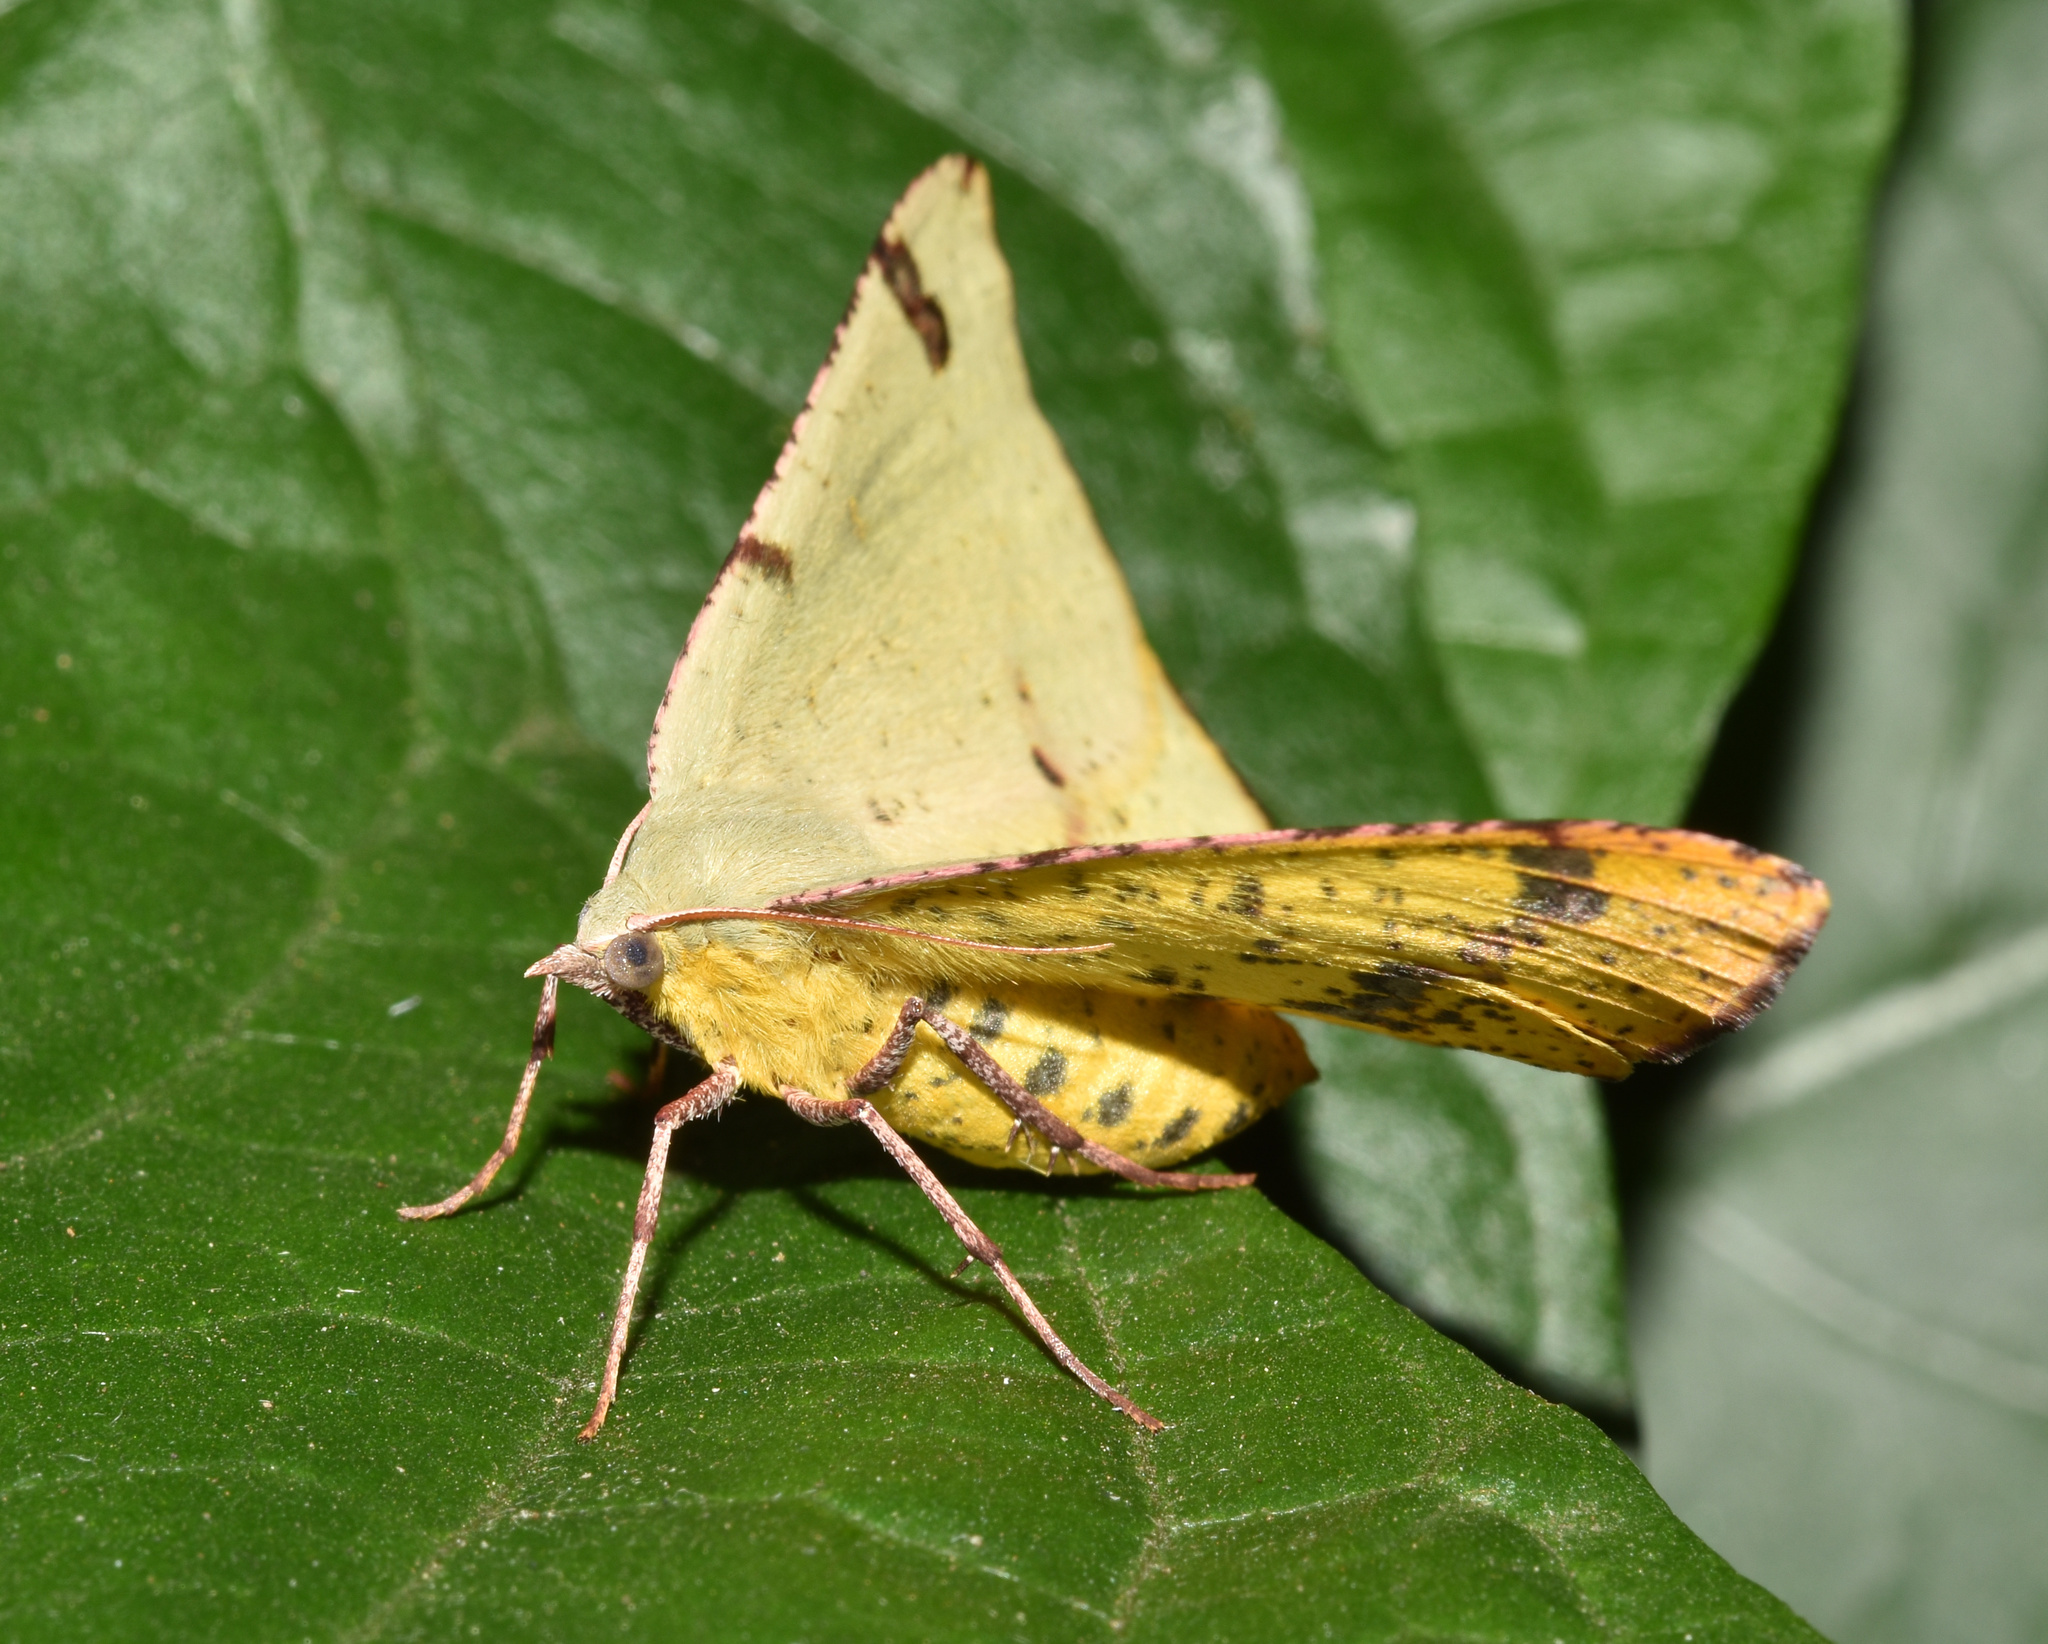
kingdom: Animalia
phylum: Arthropoda
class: Insecta
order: Lepidoptera
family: Geometridae
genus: Lhommeia
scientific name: Lhommeia subapicata
